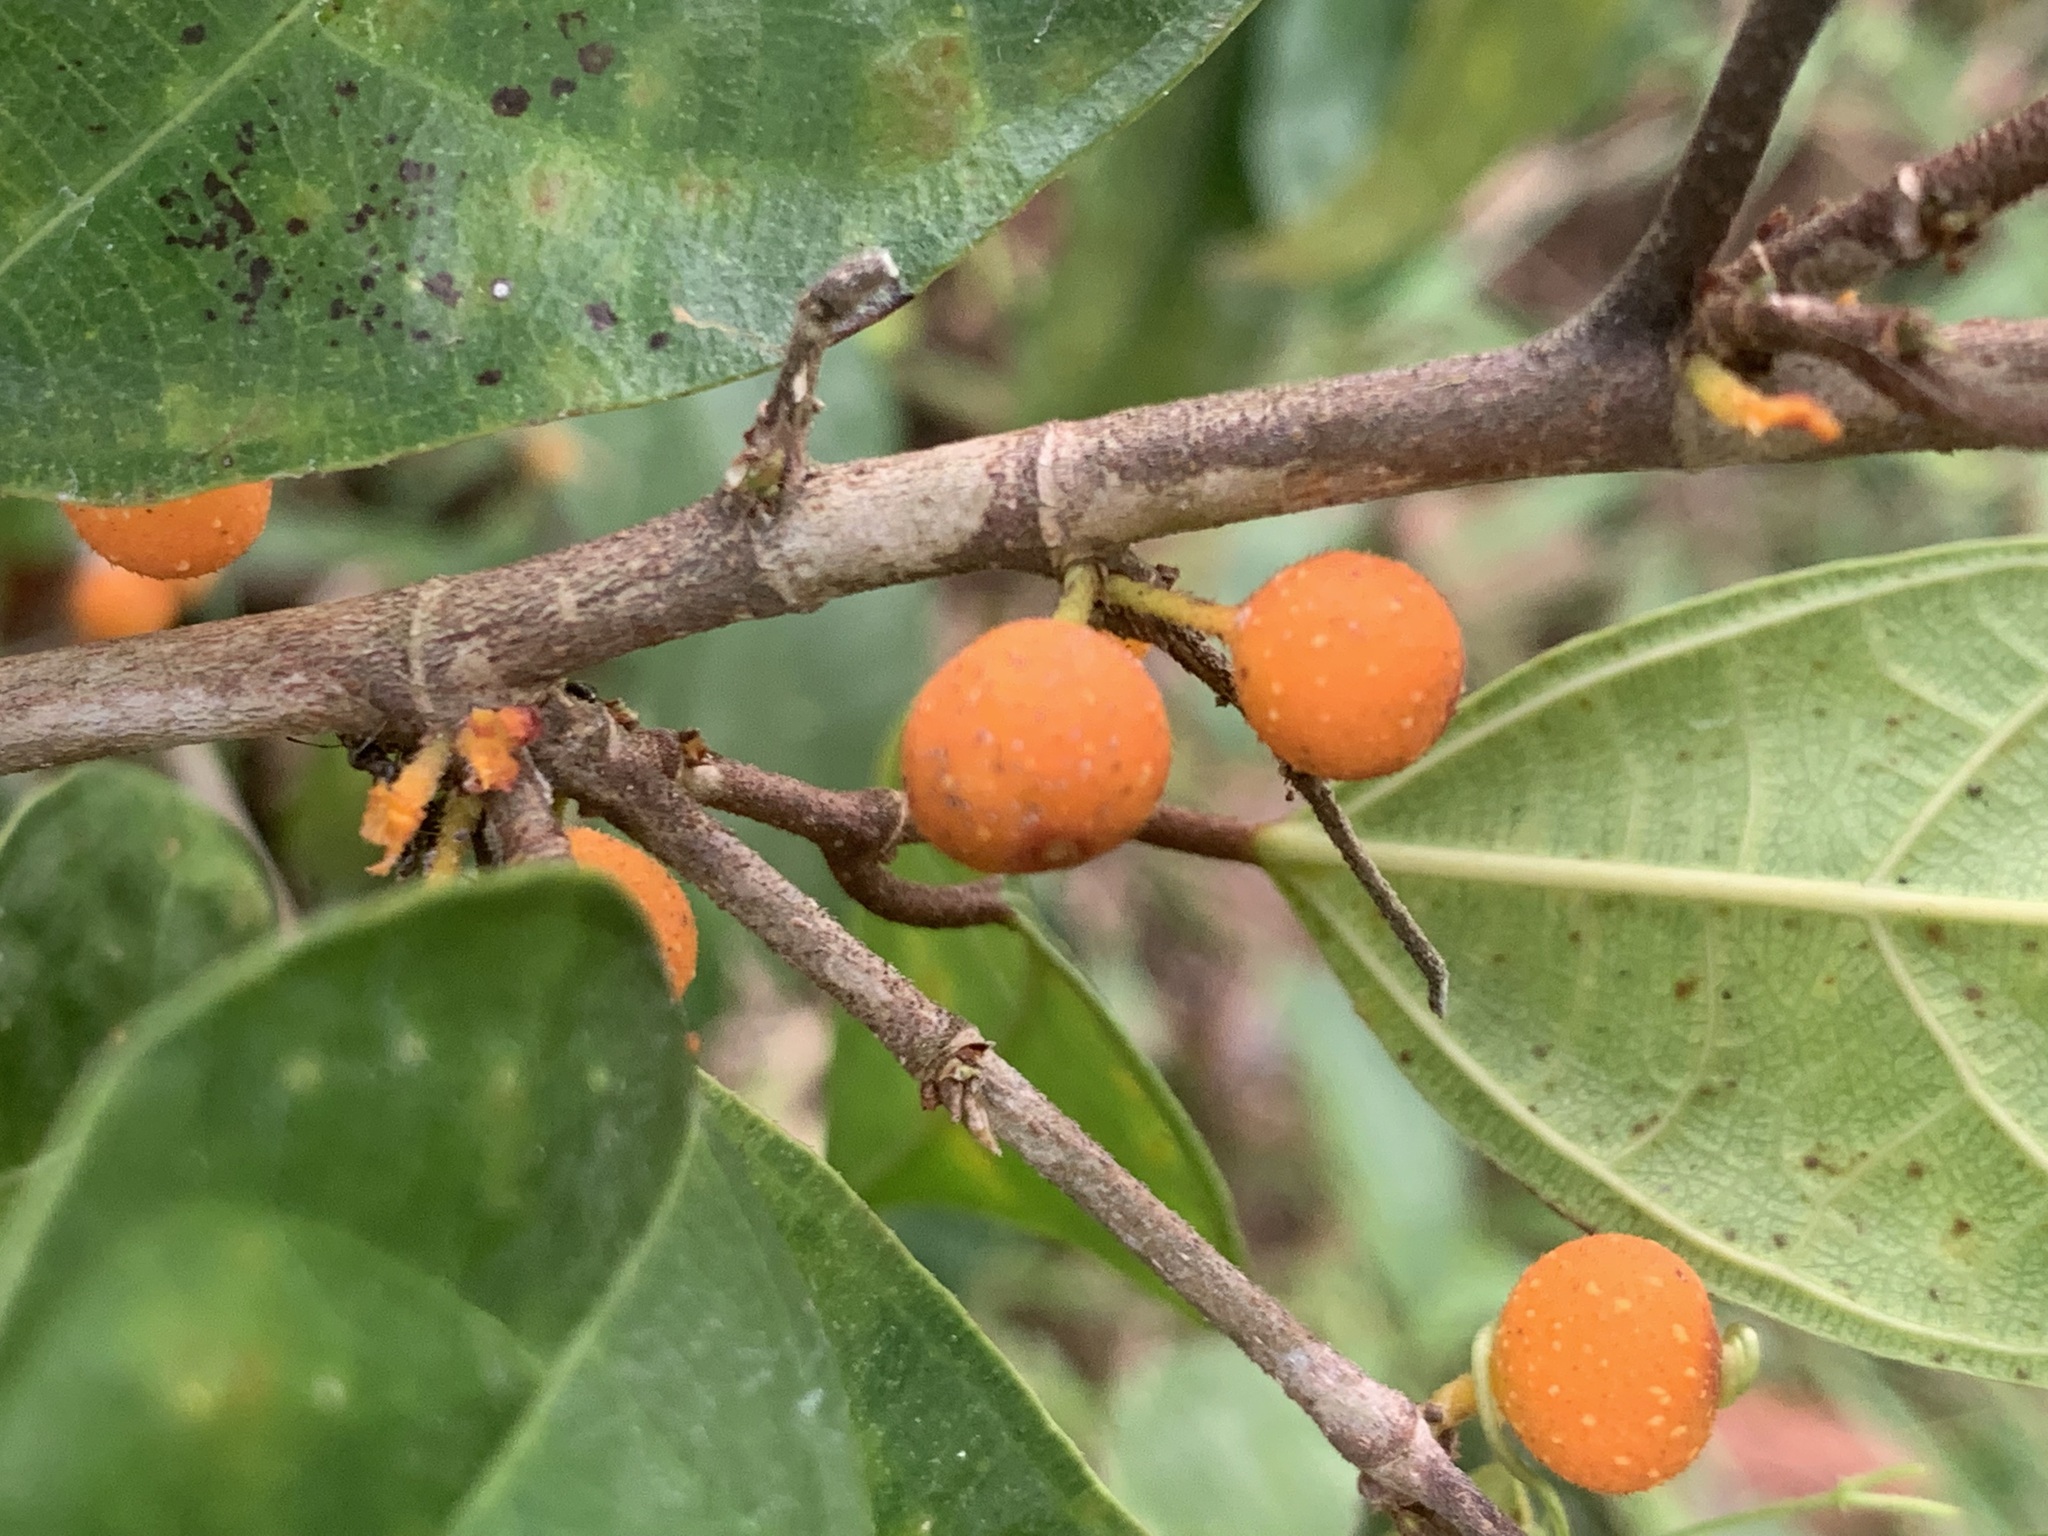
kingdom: Plantae
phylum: Tracheophyta
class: Magnoliopsida
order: Rosales
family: Moraceae
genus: Ficus
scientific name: Ficus heteropleura
